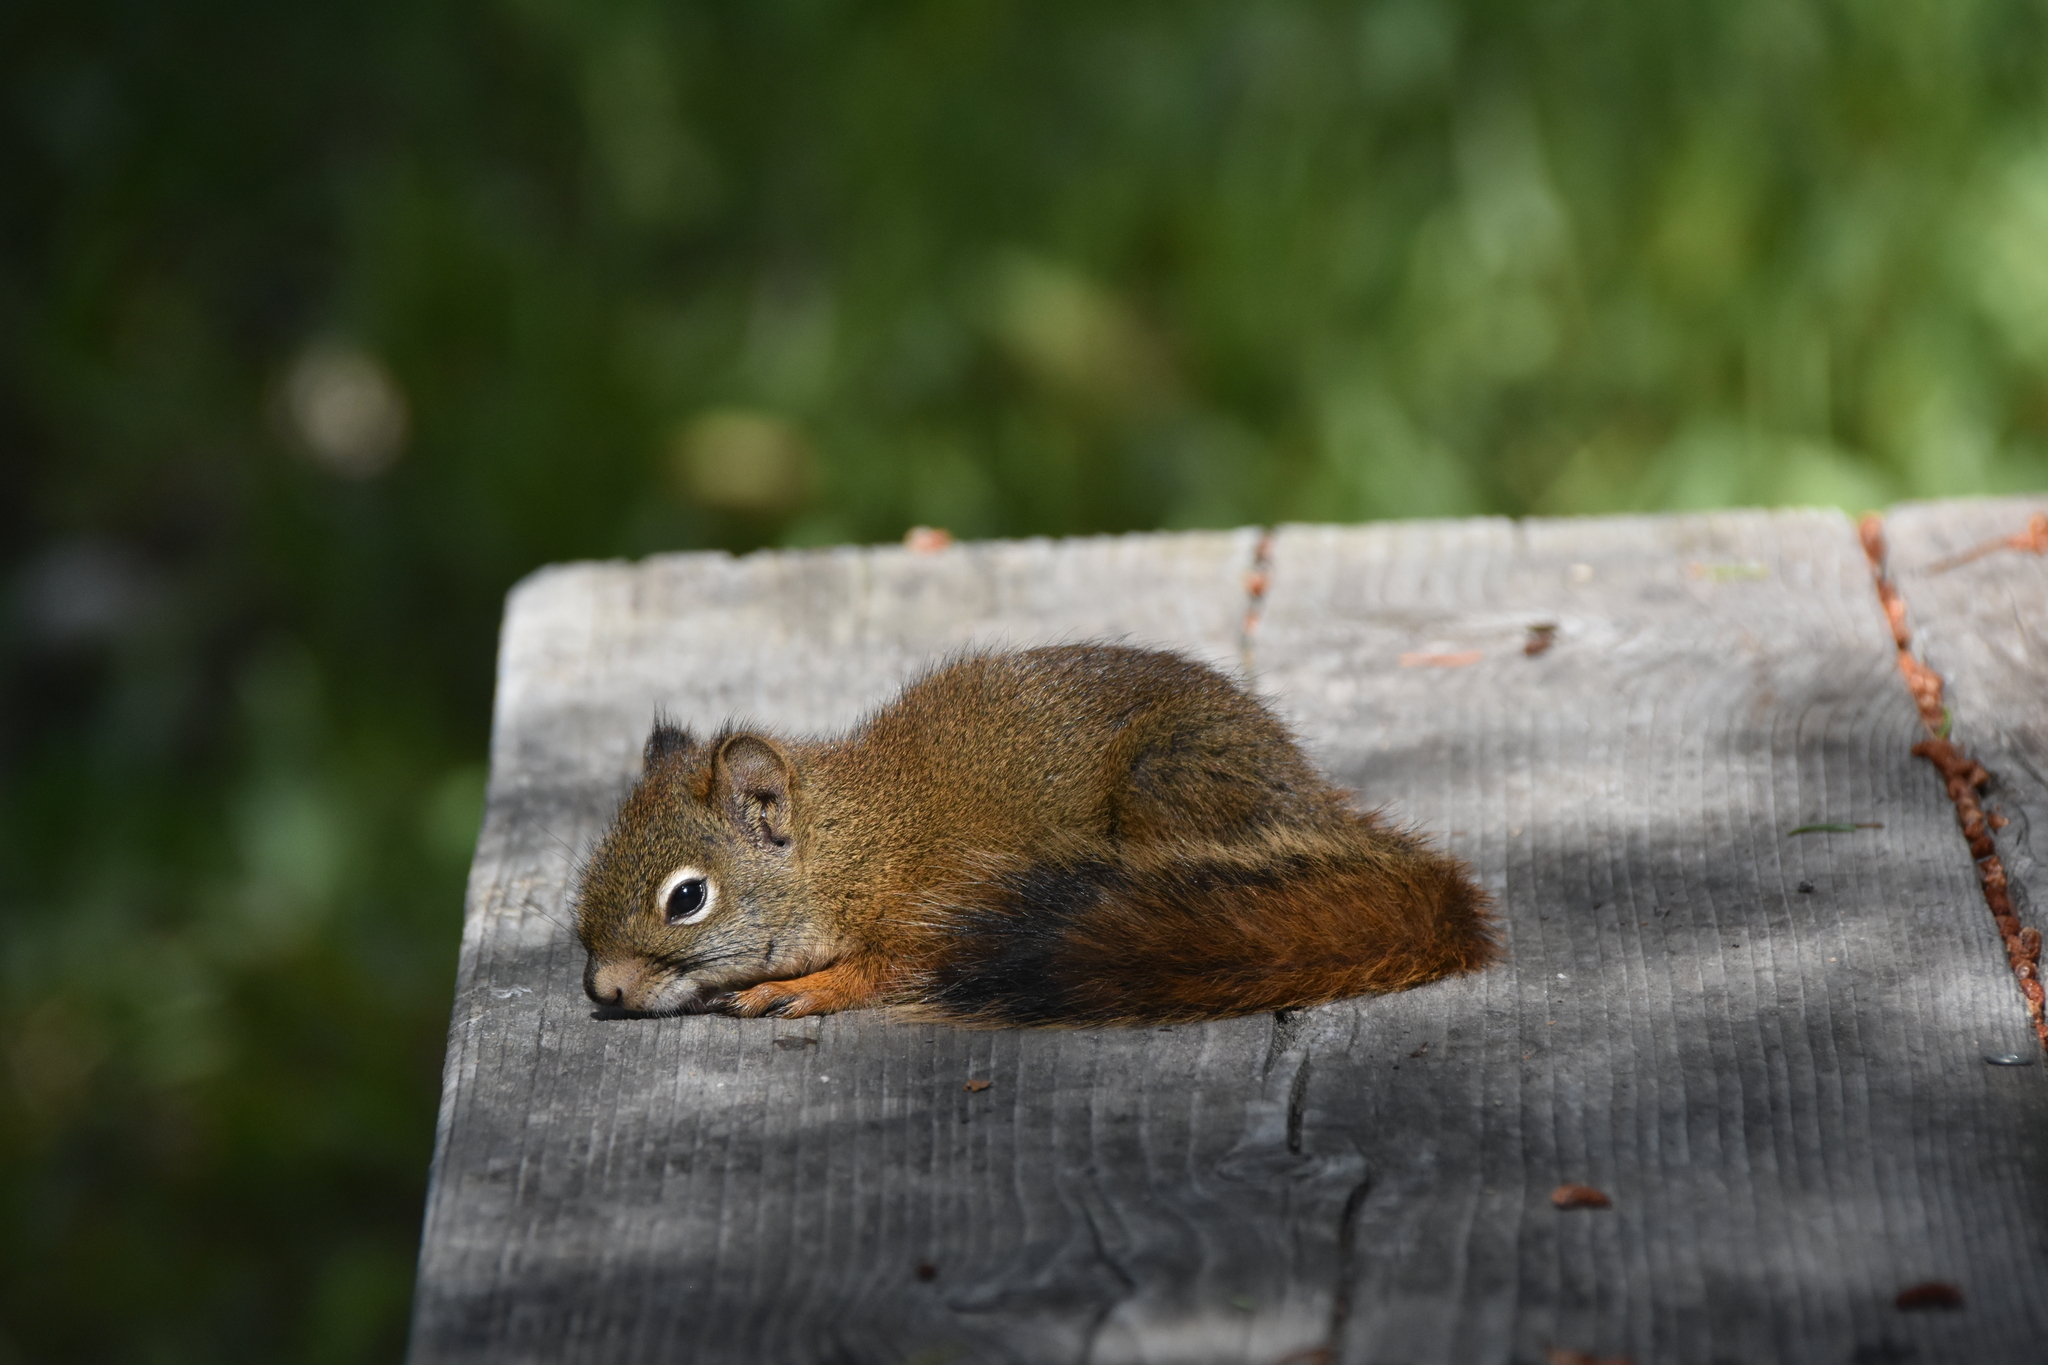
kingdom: Animalia
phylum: Chordata
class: Mammalia
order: Rodentia
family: Sciuridae
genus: Tamiasciurus
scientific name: Tamiasciurus hudsonicus
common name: Red squirrel
